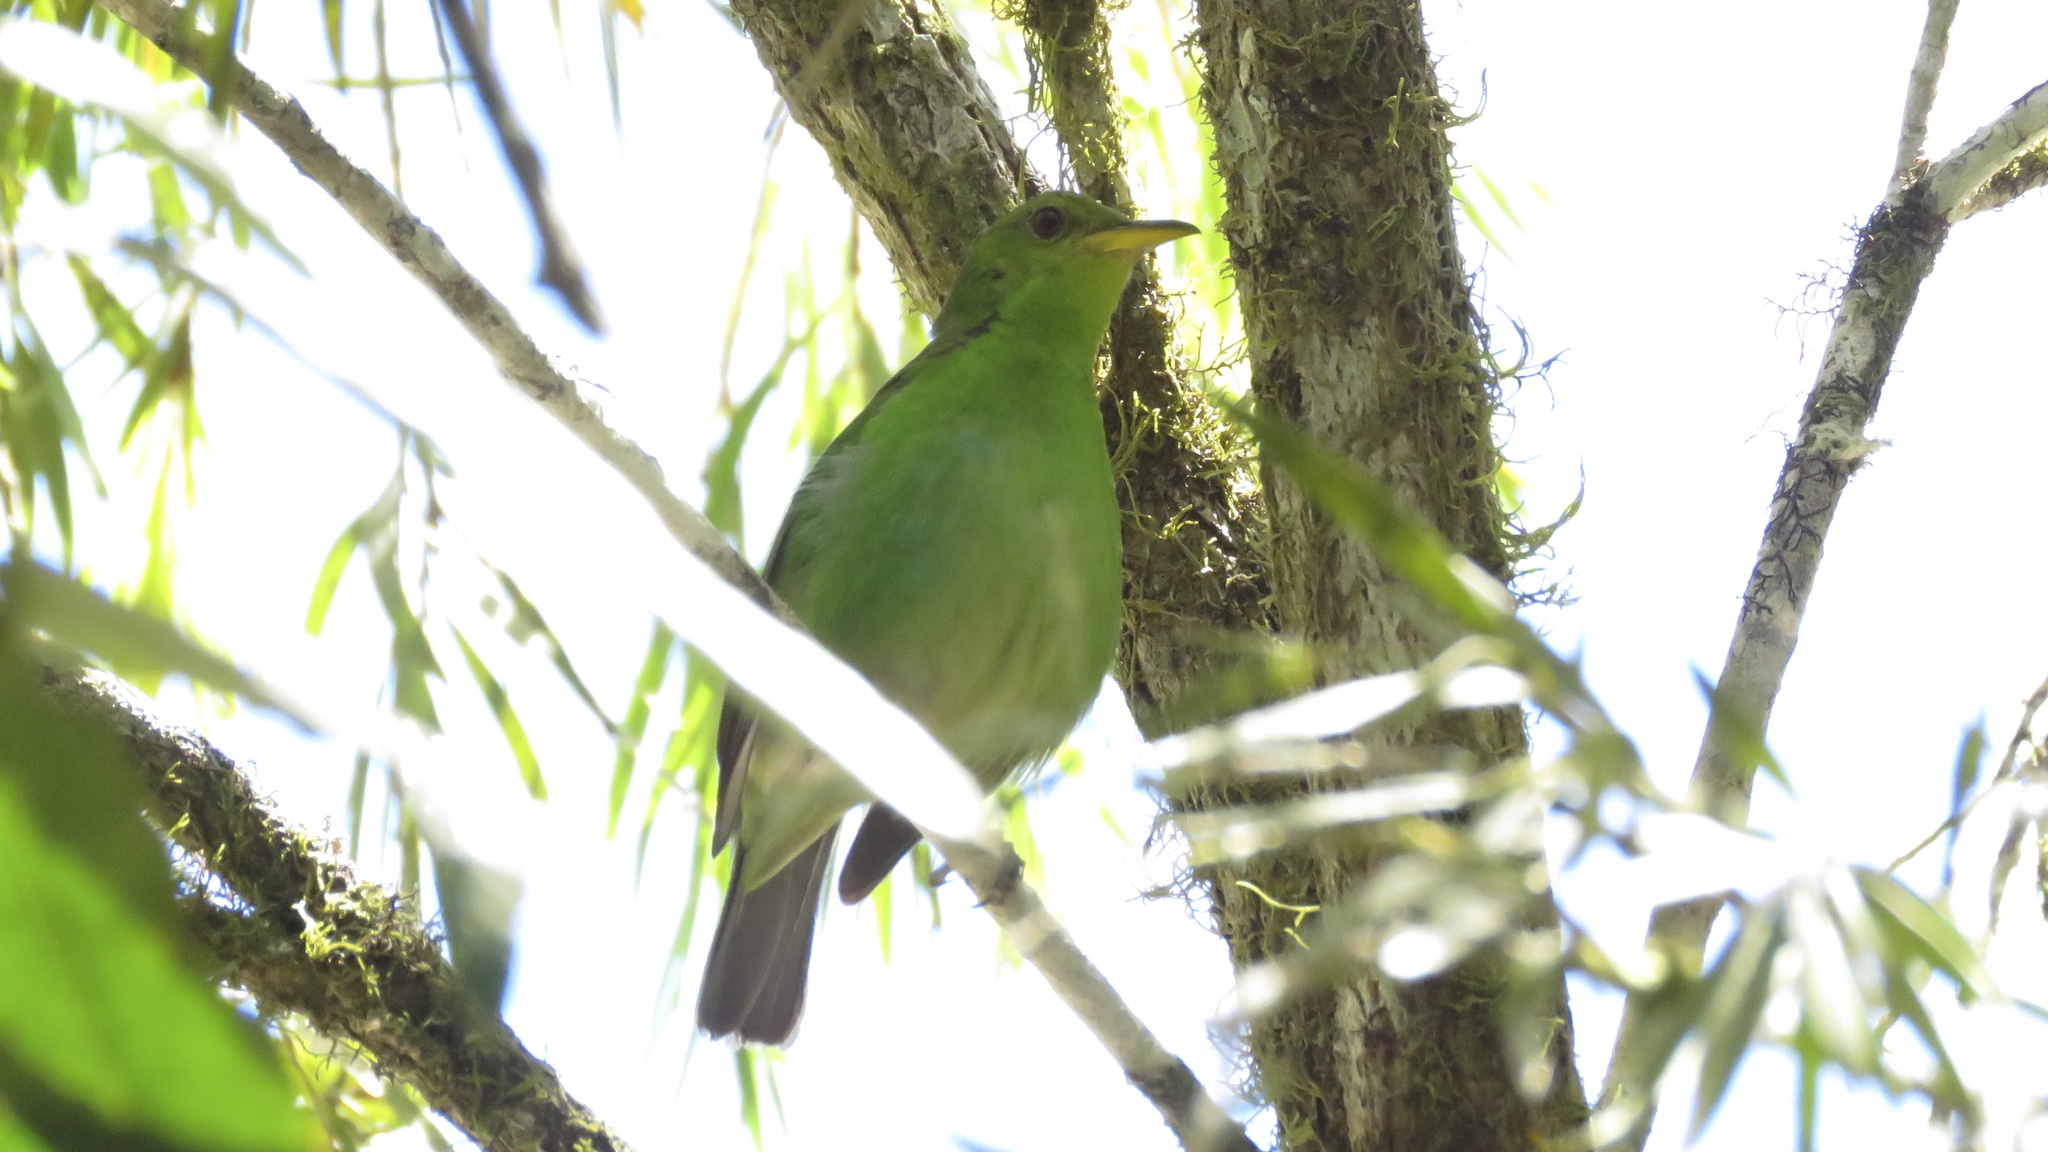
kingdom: Animalia
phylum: Chordata
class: Aves
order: Passeriformes
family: Thraupidae
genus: Chlorophanes
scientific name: Chlorophanes spiza
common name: Green honeycreeper
